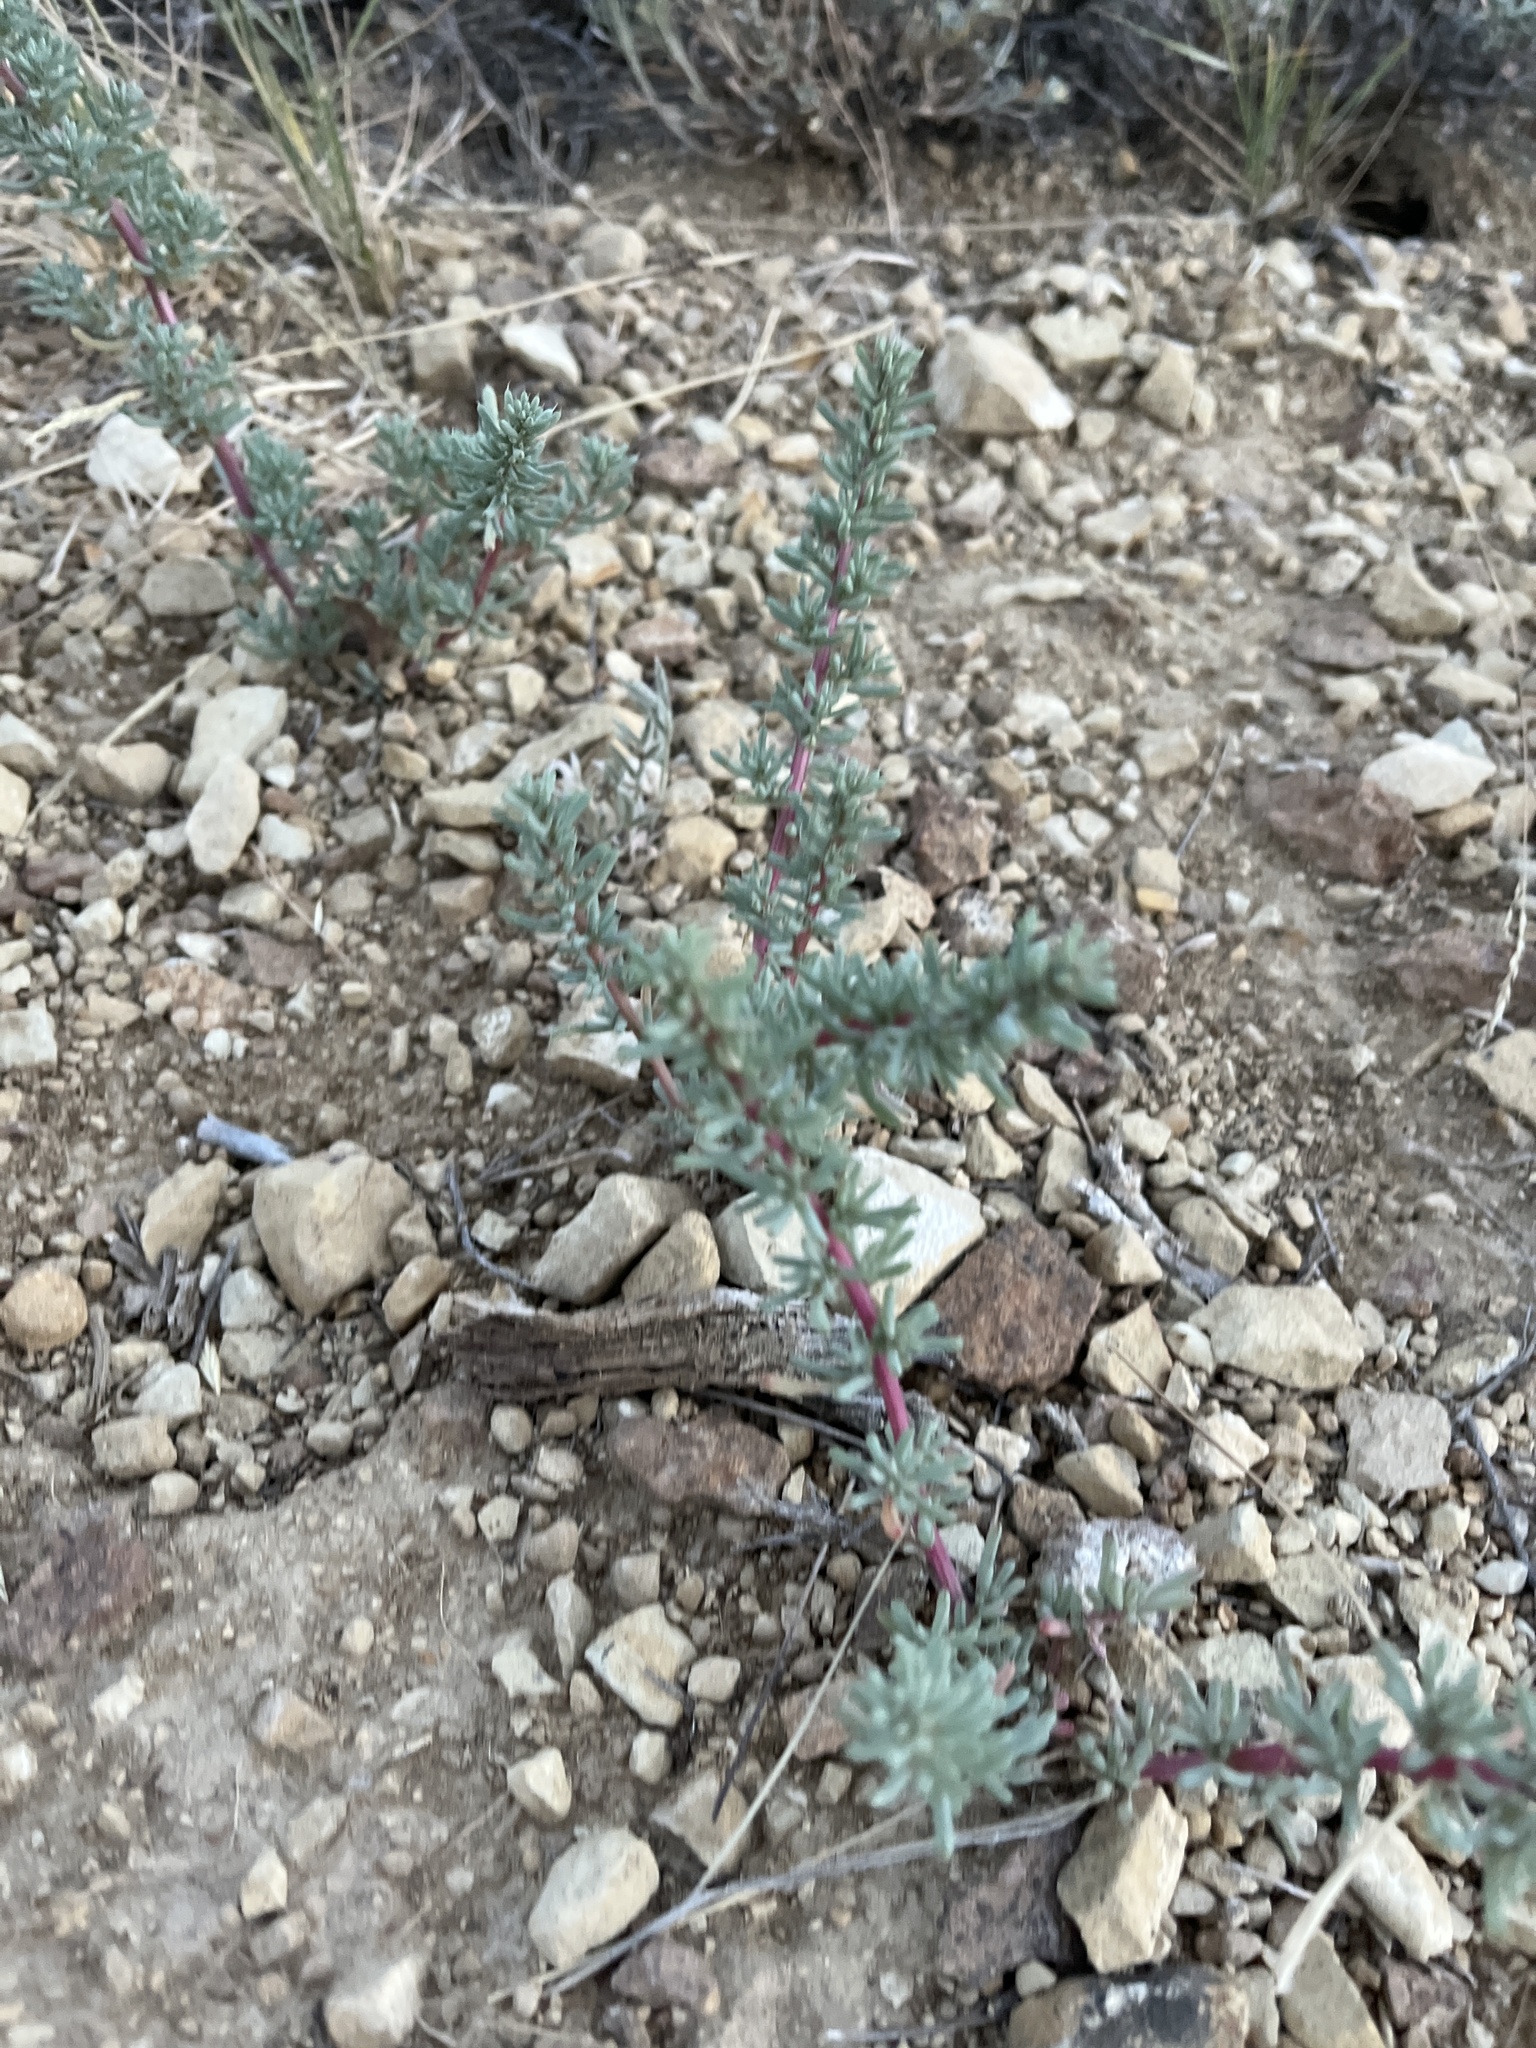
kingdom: Plantae
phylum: Tracheophyta
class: Magnoliopsida
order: Caryophyllales
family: Amaranthaceae
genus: Halogeton
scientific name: Halogeton glomeratus
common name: Saltlover
